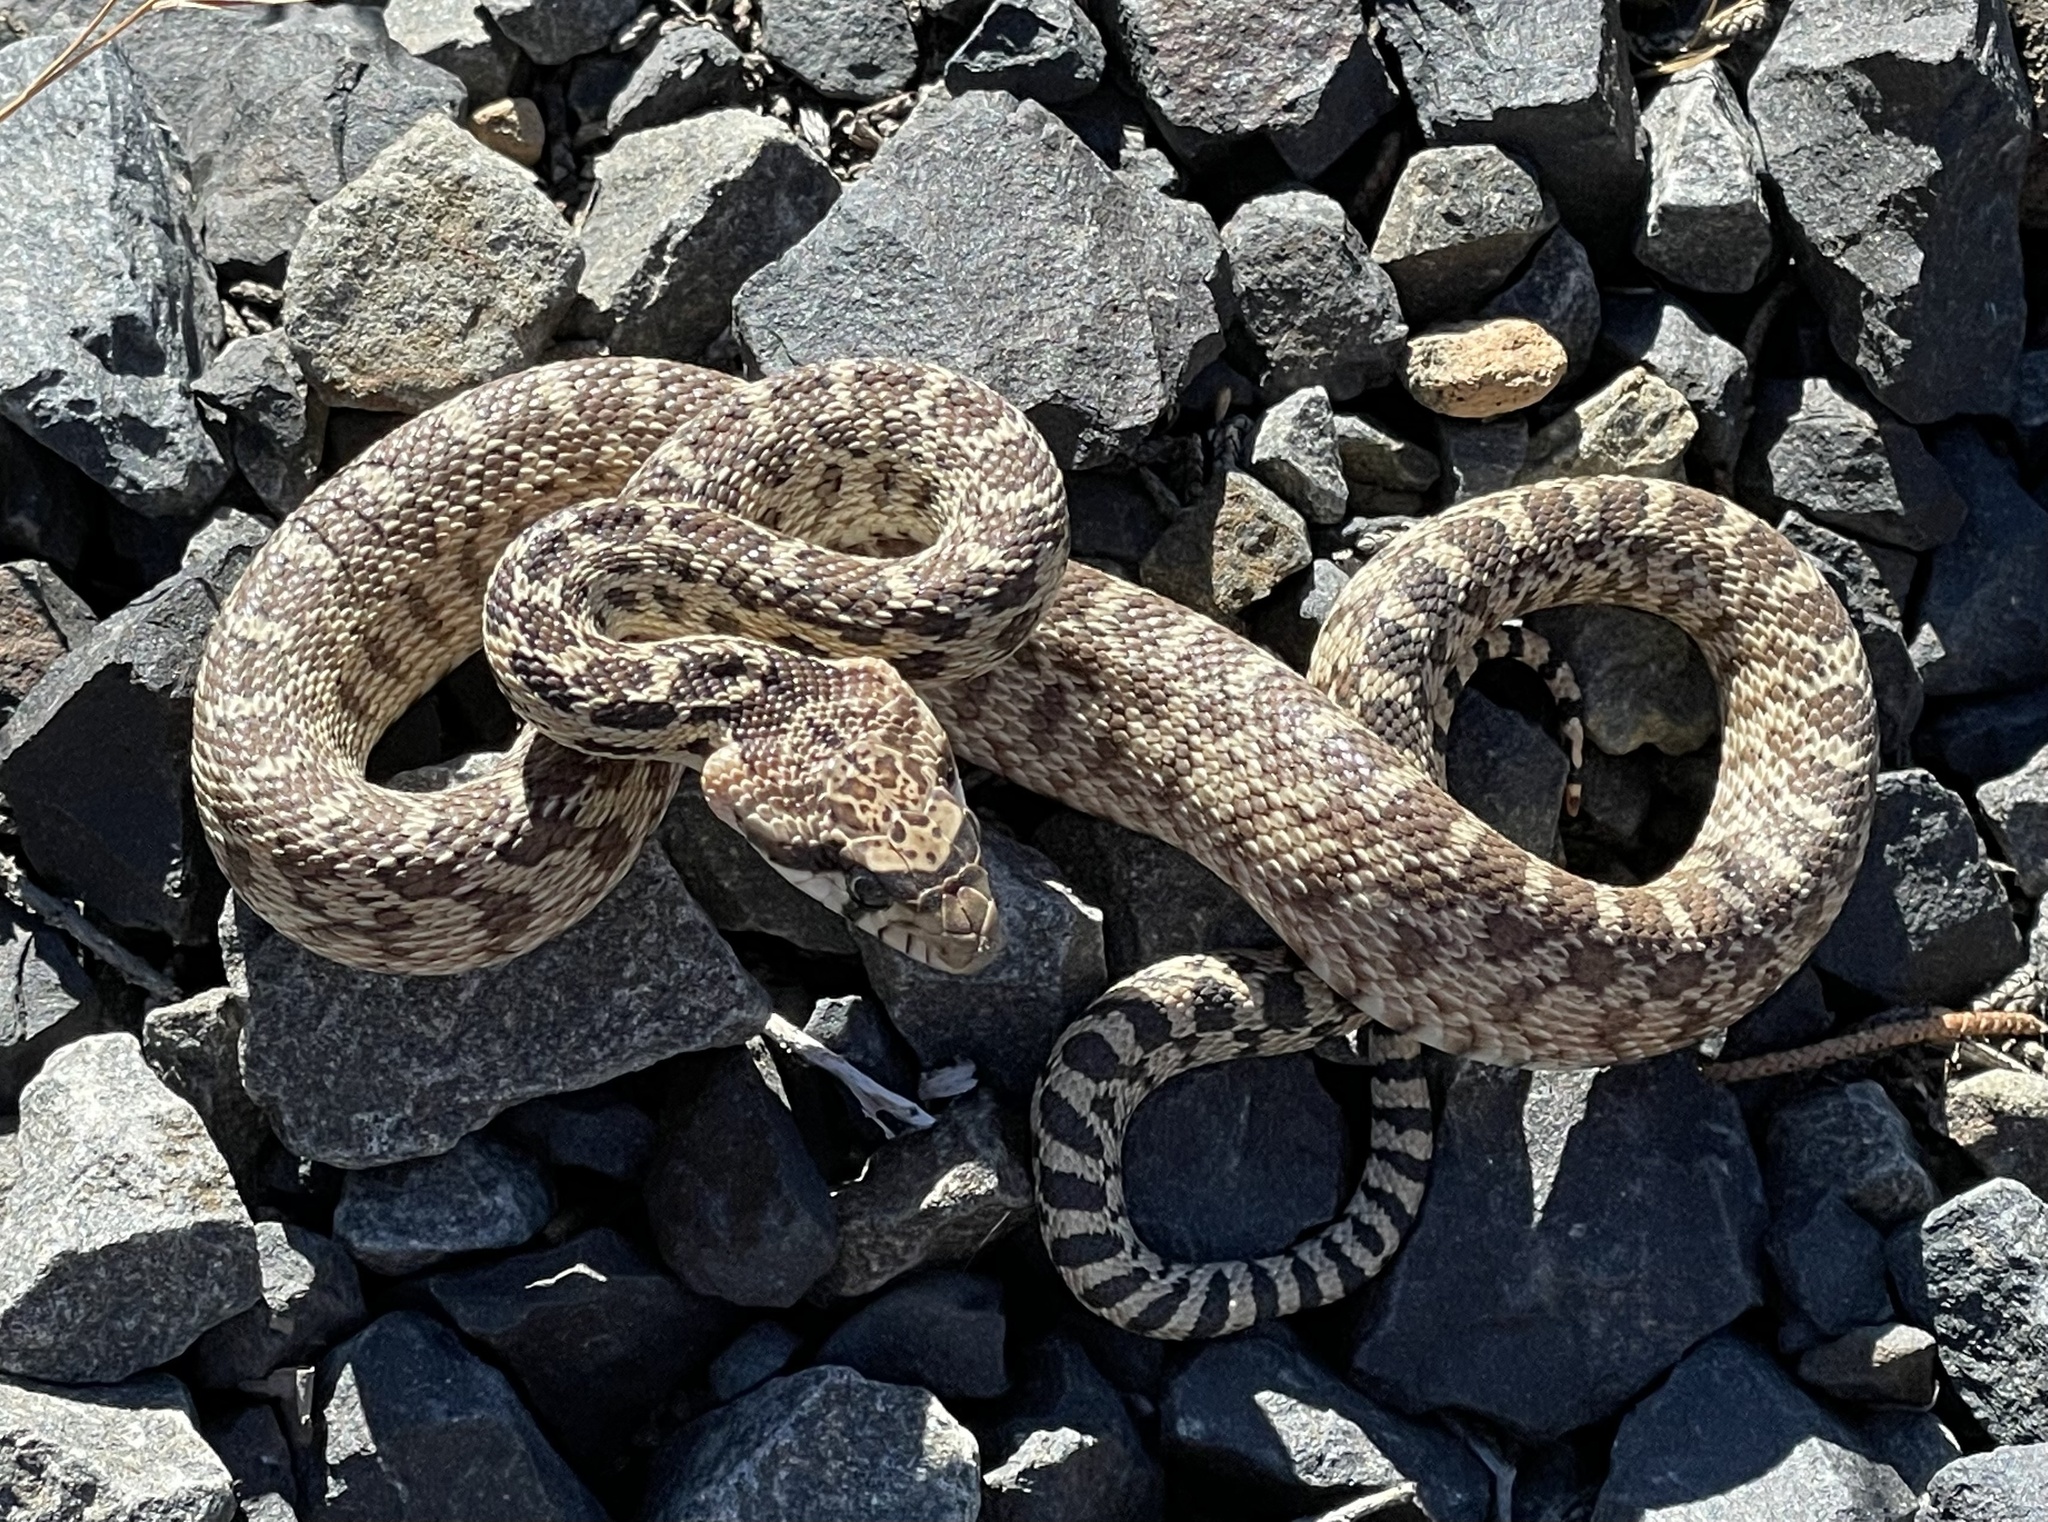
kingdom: Animalia
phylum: Chordata
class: Squamata
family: Colubridae
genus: Pituophis
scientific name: Pituophis catenifer
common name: Gopher snake
